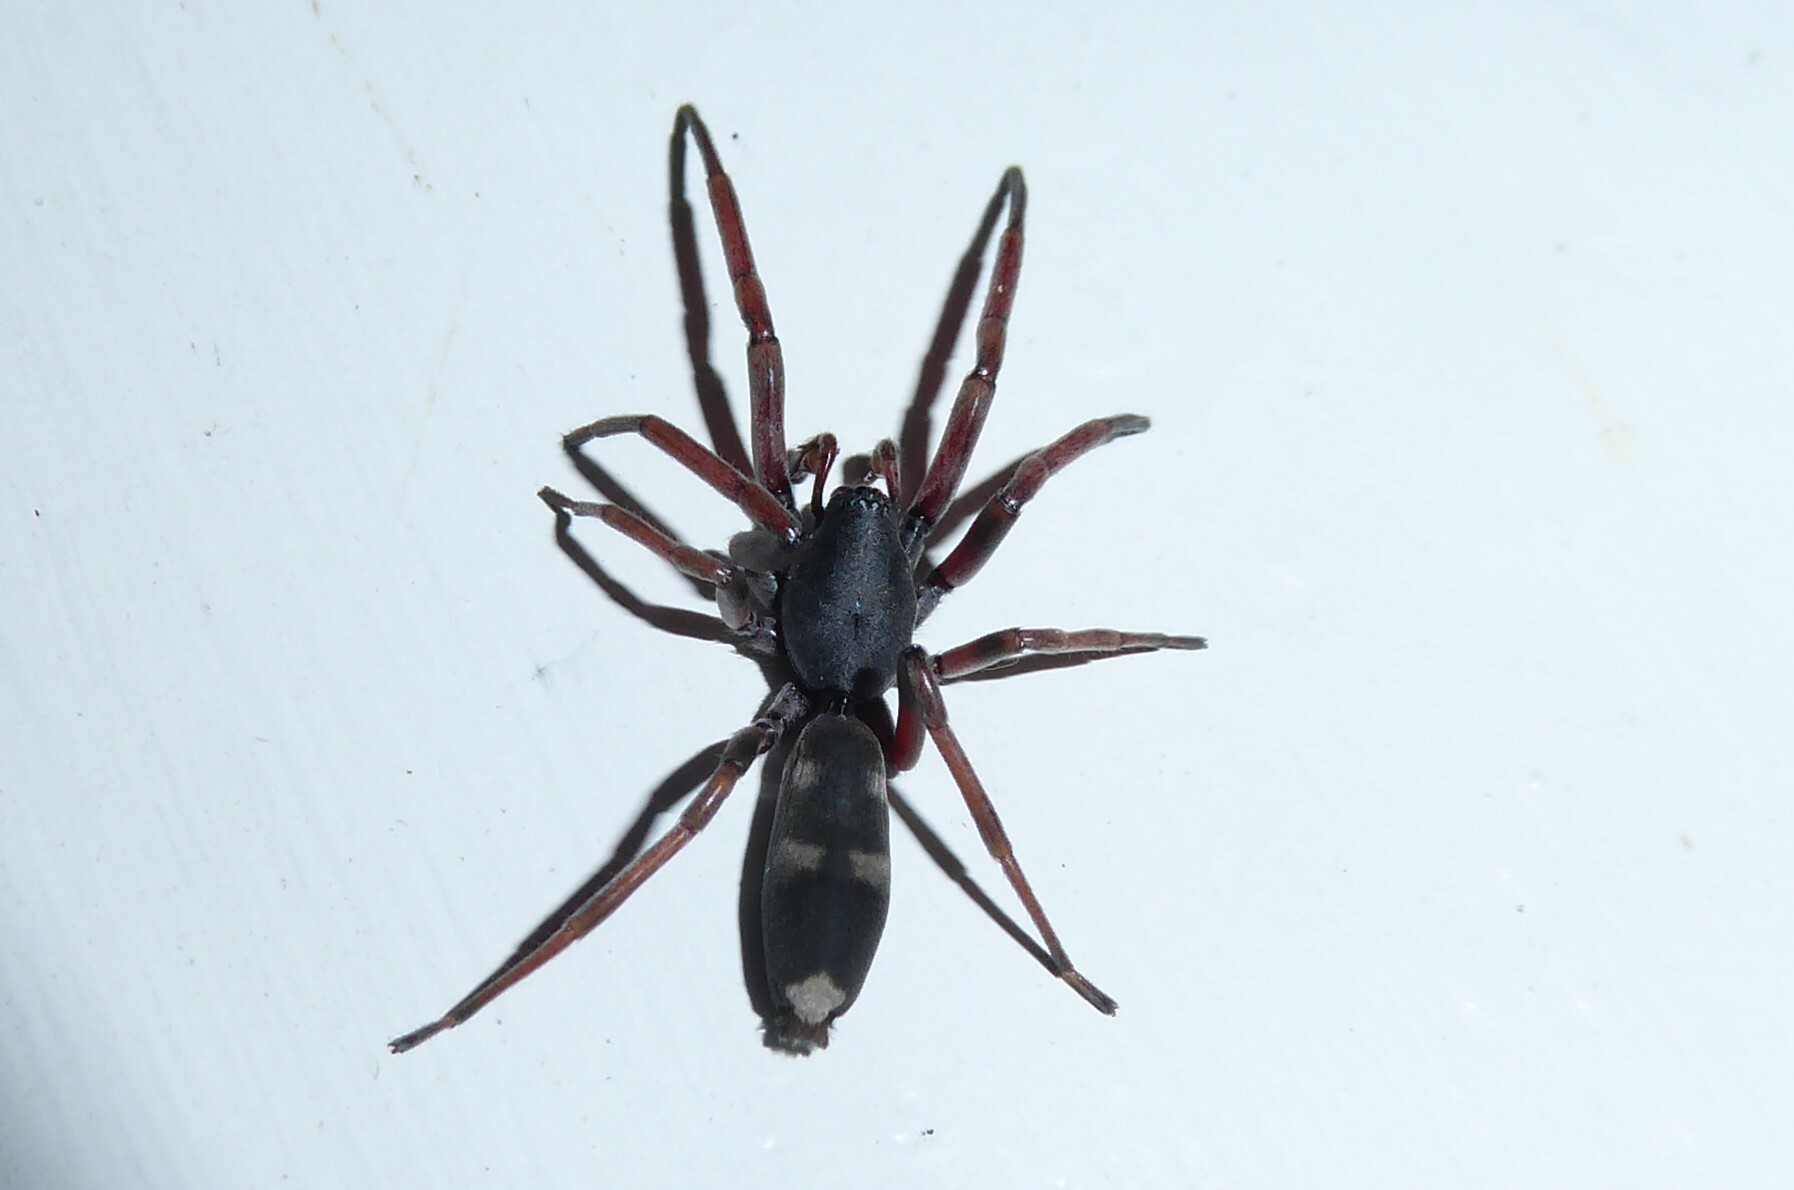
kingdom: Animalia
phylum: Arthropoda
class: Arachnida
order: Araneae
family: Lamponidae
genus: Lampona
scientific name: Lampona cylindrata
